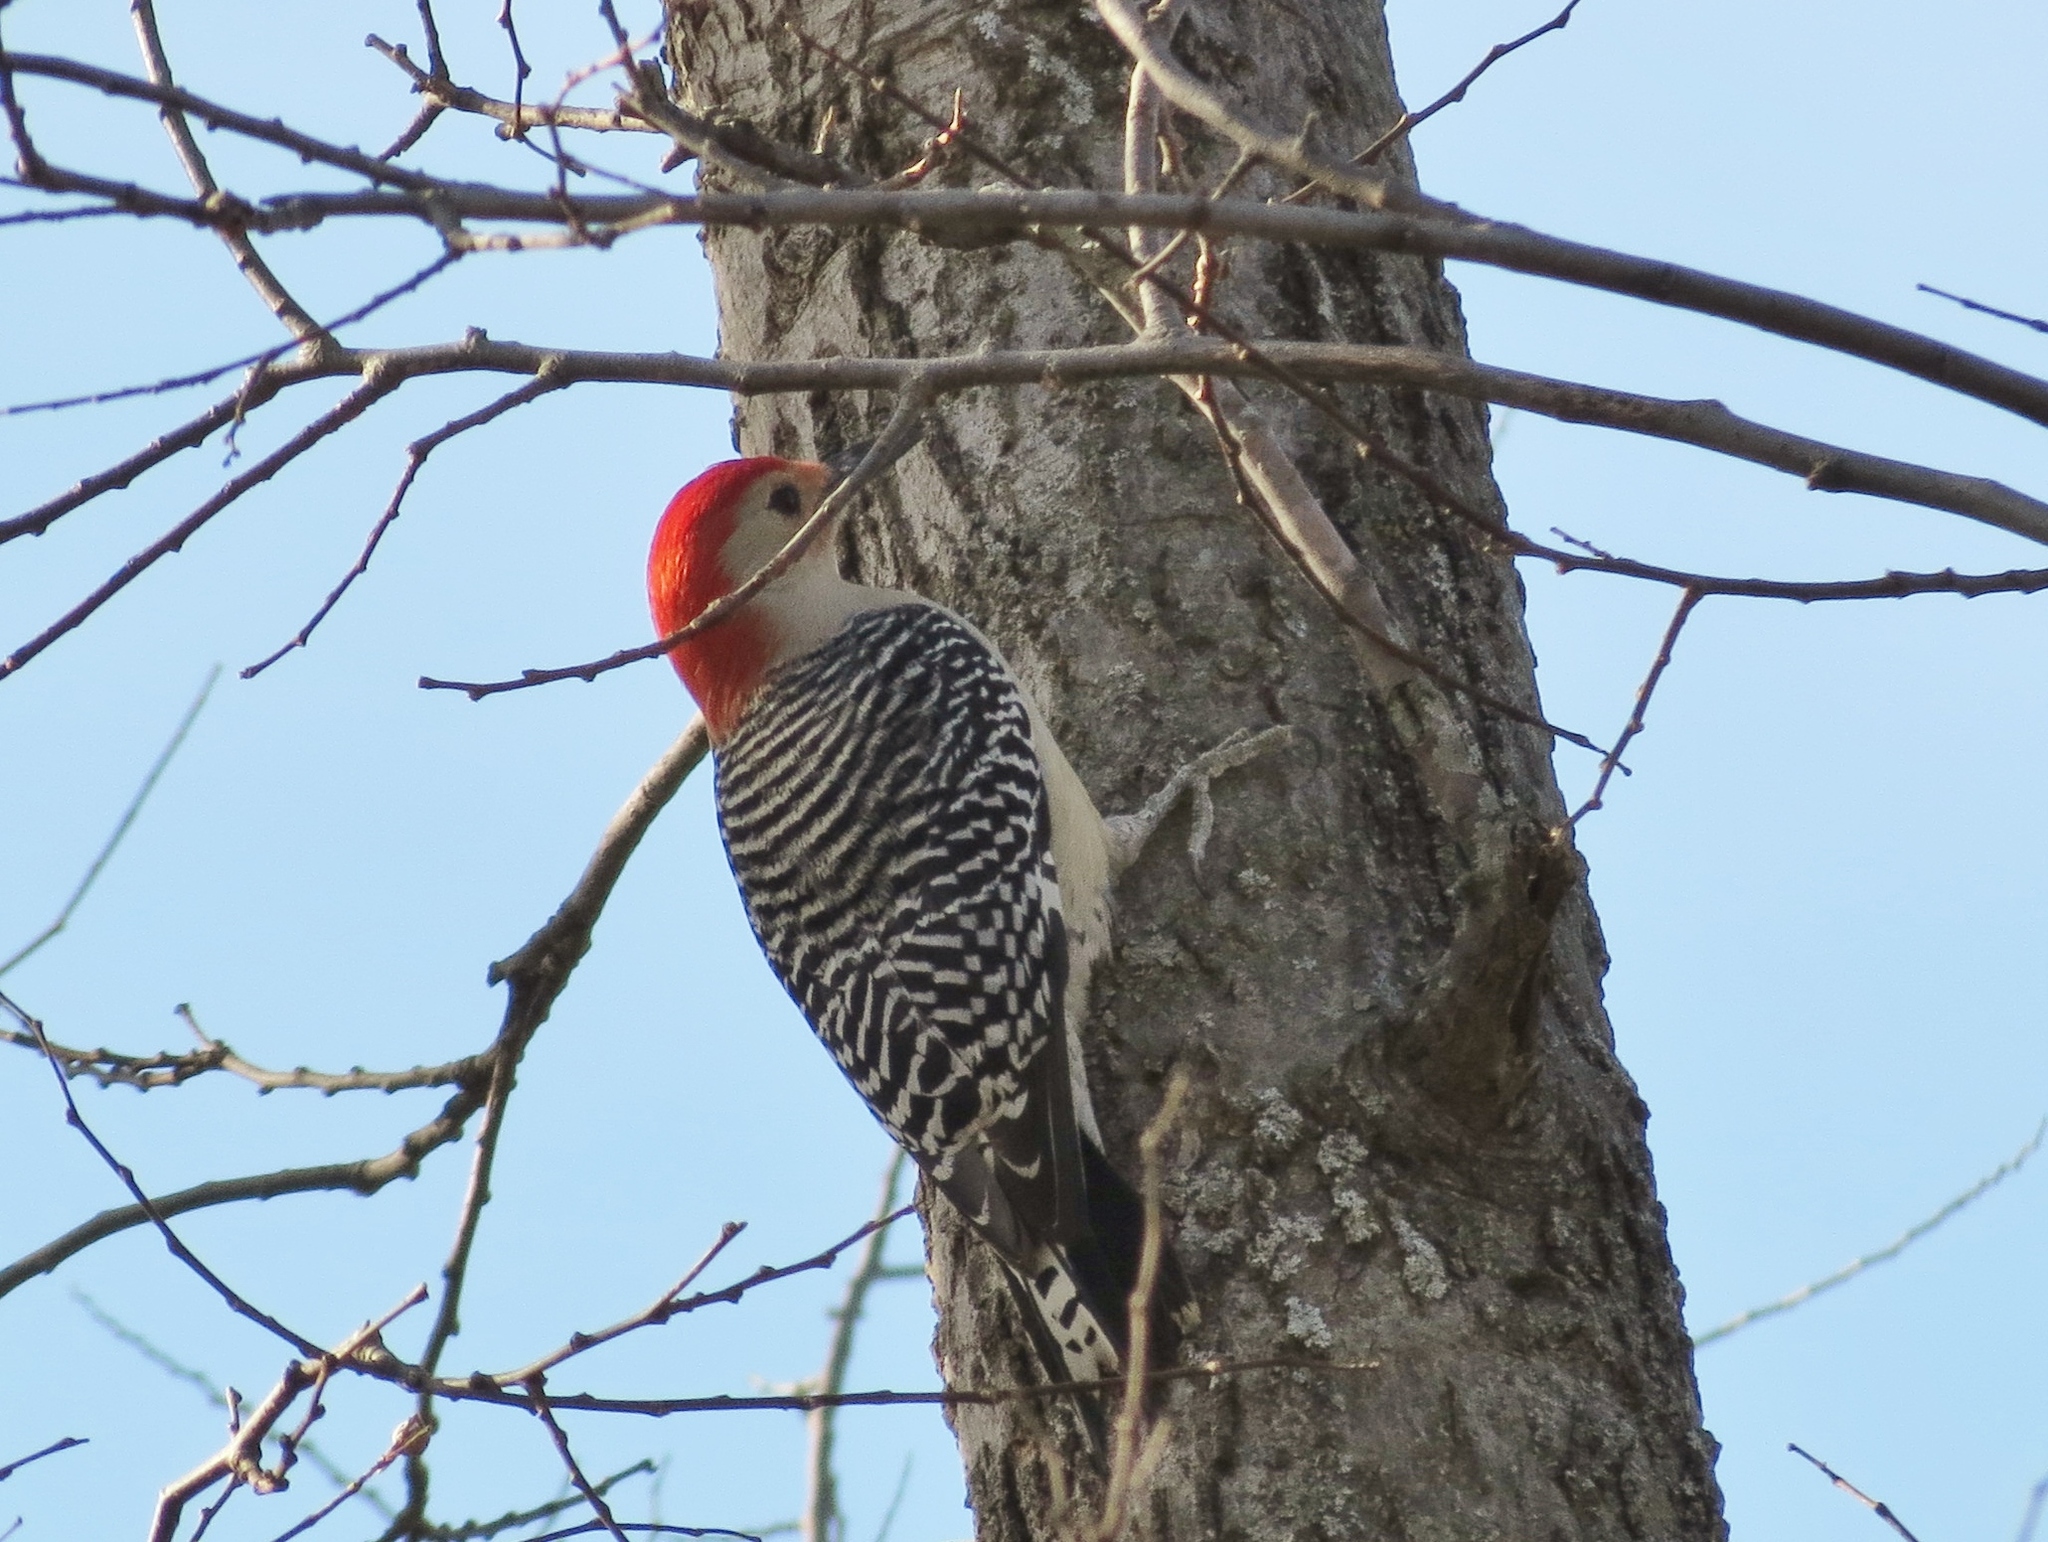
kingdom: Animalia
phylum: Chordata
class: Aves
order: Piciformes
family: Picidae
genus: Melanerpes
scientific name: Melanerpes carolinus
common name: Red-bellied woodpecker
